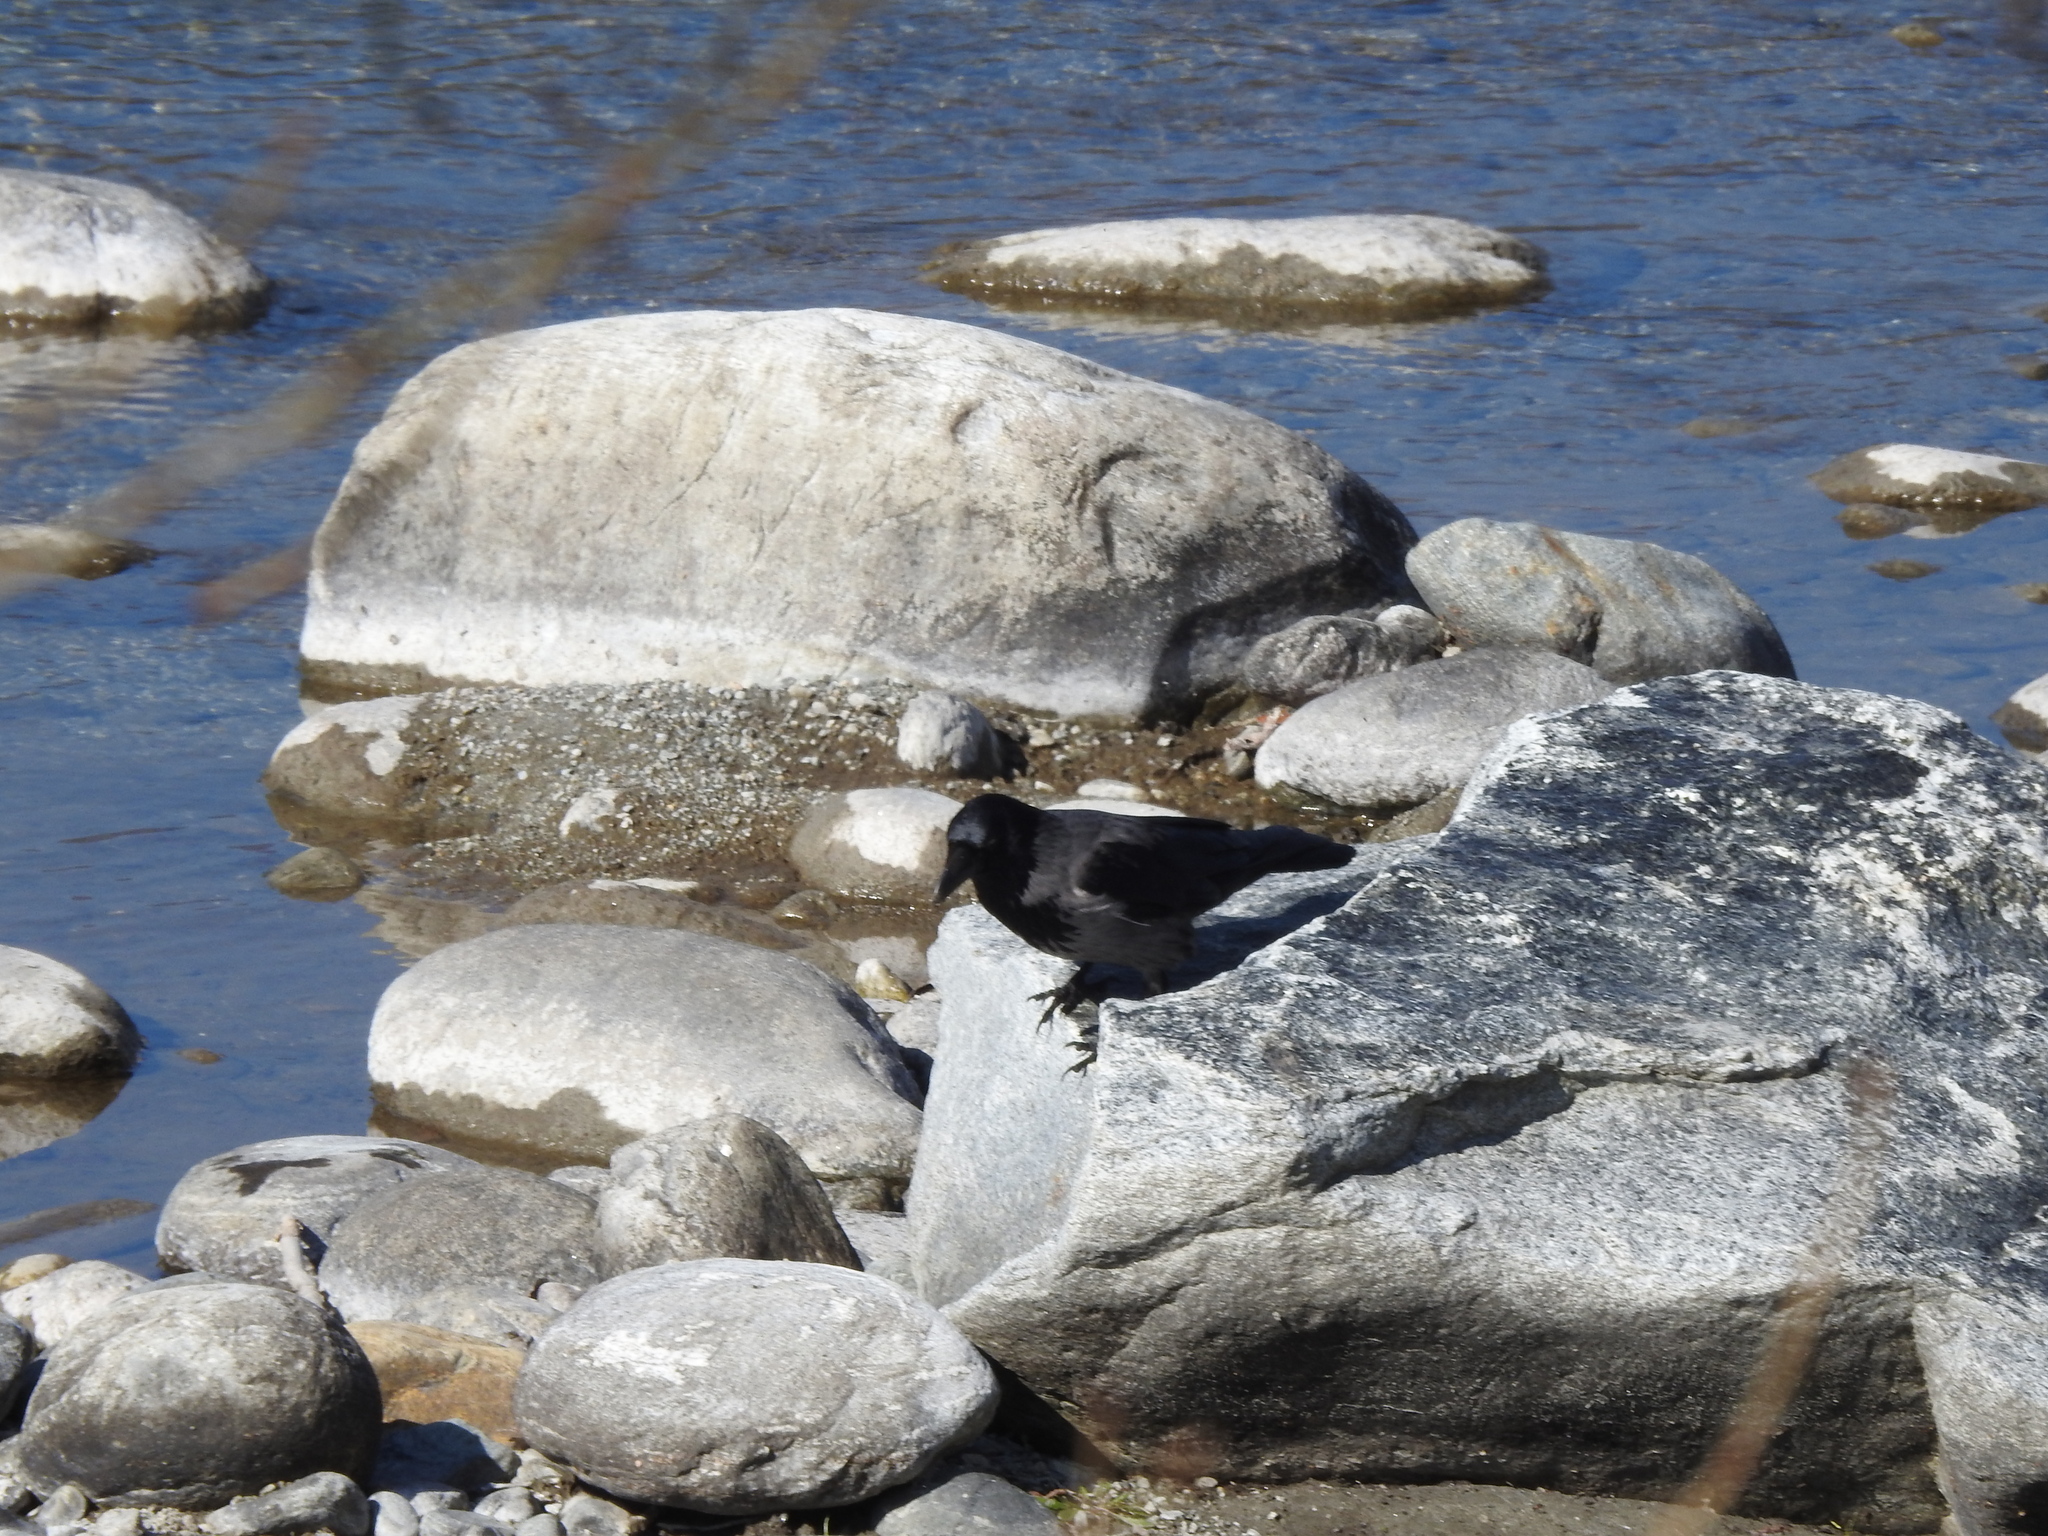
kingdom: Animalia
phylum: Chordata
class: Aves
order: Passeriformes
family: Corvidae
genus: Corvus
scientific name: Corvus cornix
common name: Hooded crow
